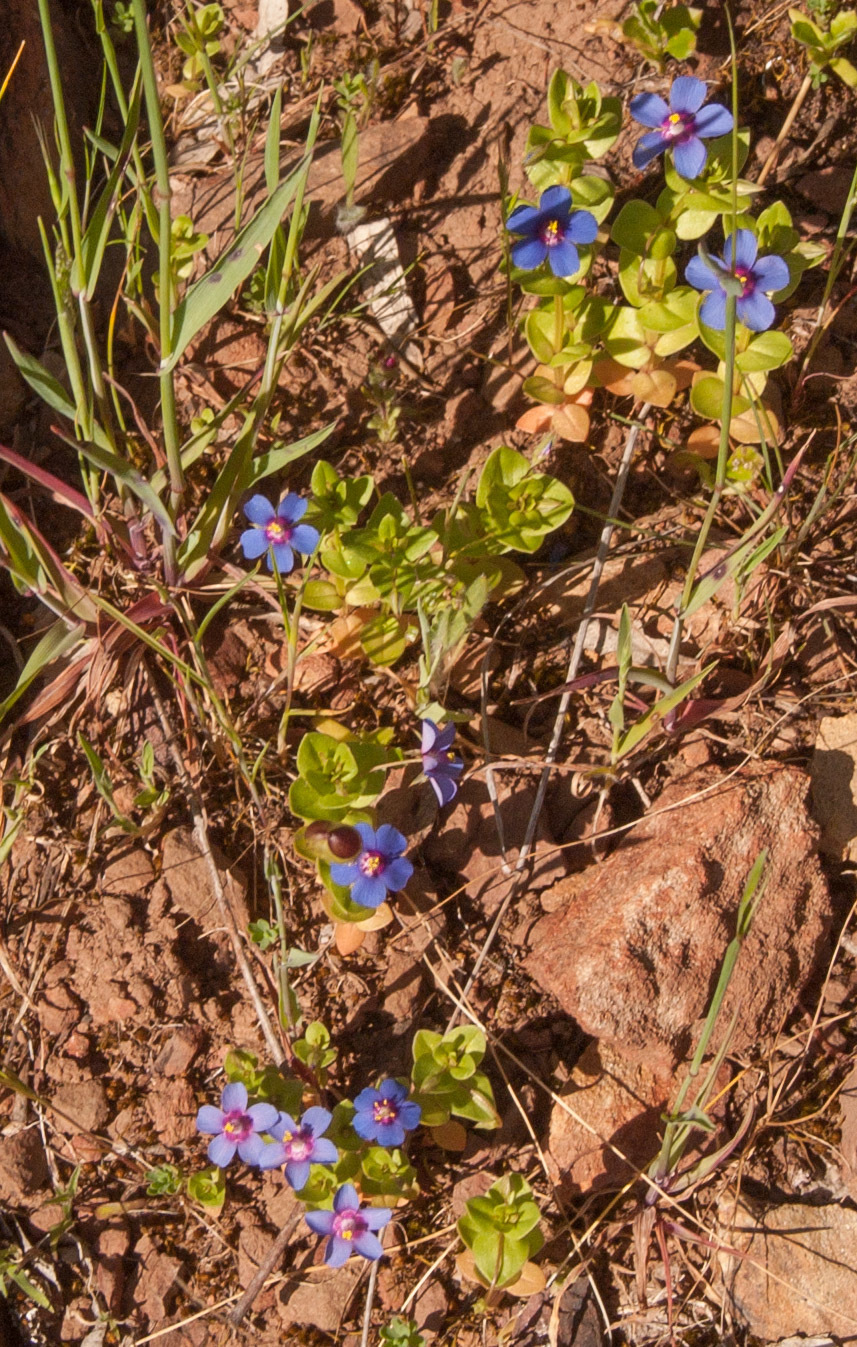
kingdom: Plantae
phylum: Tracheophyta
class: Magnoliopsida
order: Ericales
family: Primulaceae
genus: Lysimachia
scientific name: Lysimachia loeflingii
